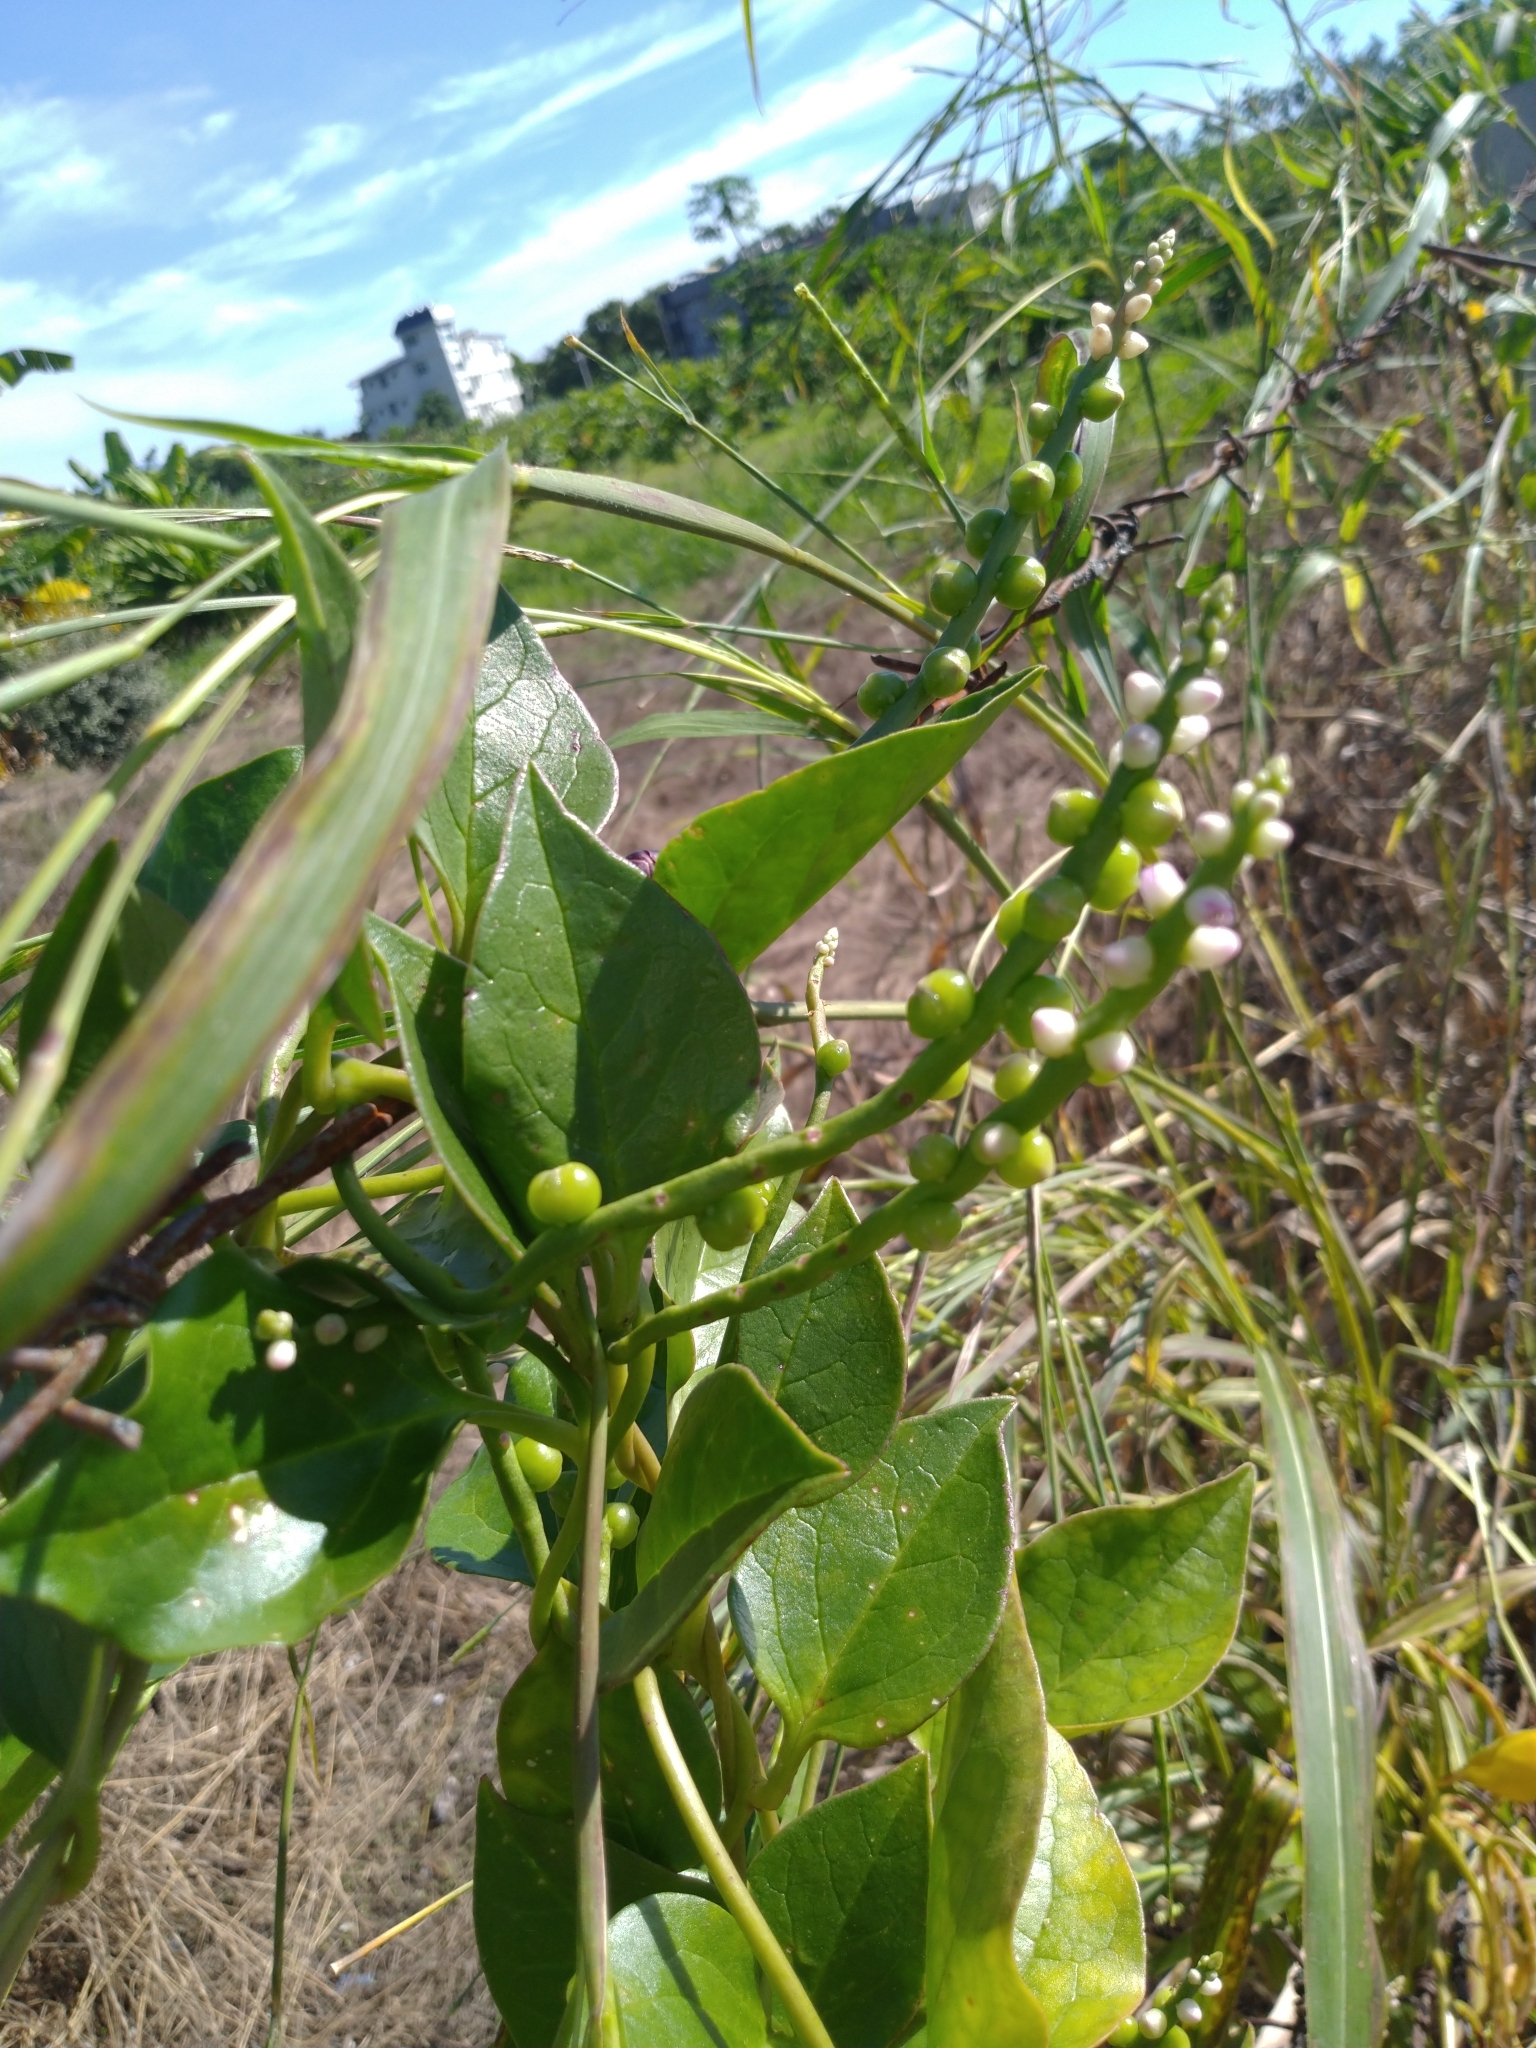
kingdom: Plantae
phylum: Tracheophyta
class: Magnoliopsida
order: Caryophyllales
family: Basellaceae
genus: Basella
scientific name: Basella alba
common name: Indian spinach
